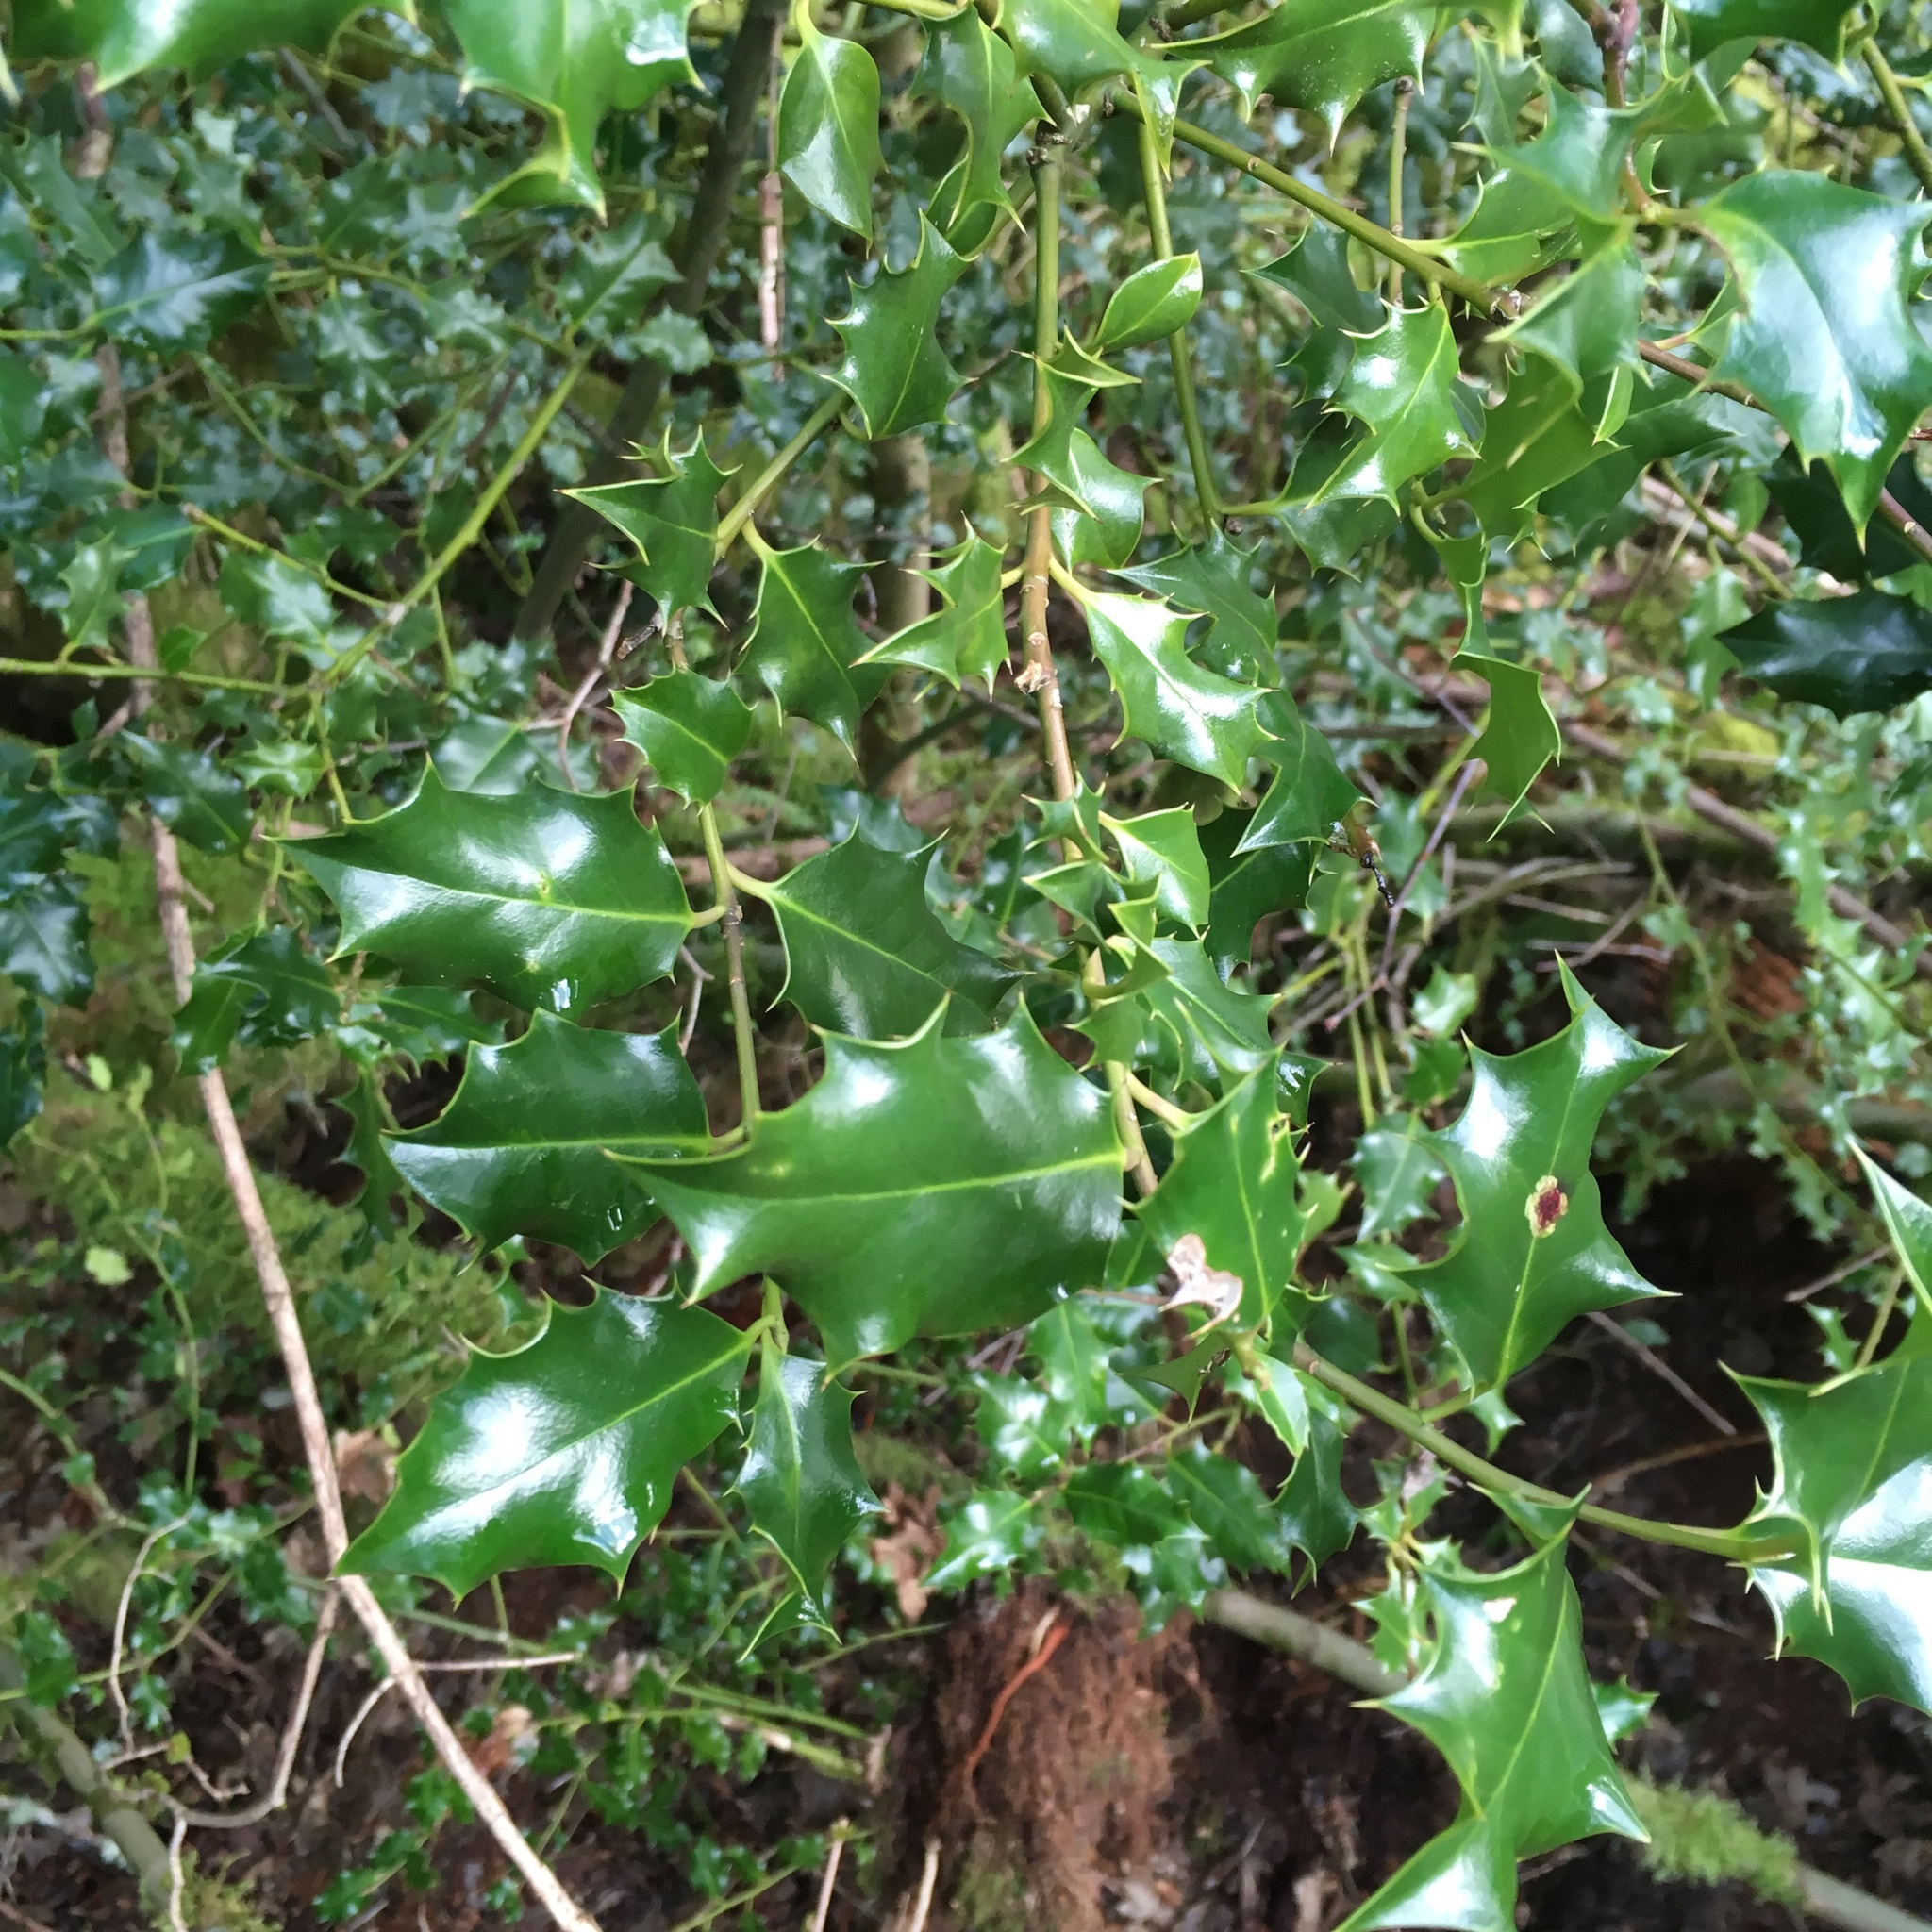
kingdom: Plantae
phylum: Tracheophyta
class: Magnoliopsida
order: Aquifoliales
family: Aquifoliaceae
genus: Ilex
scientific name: Ilex aquifolium
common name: English holly
